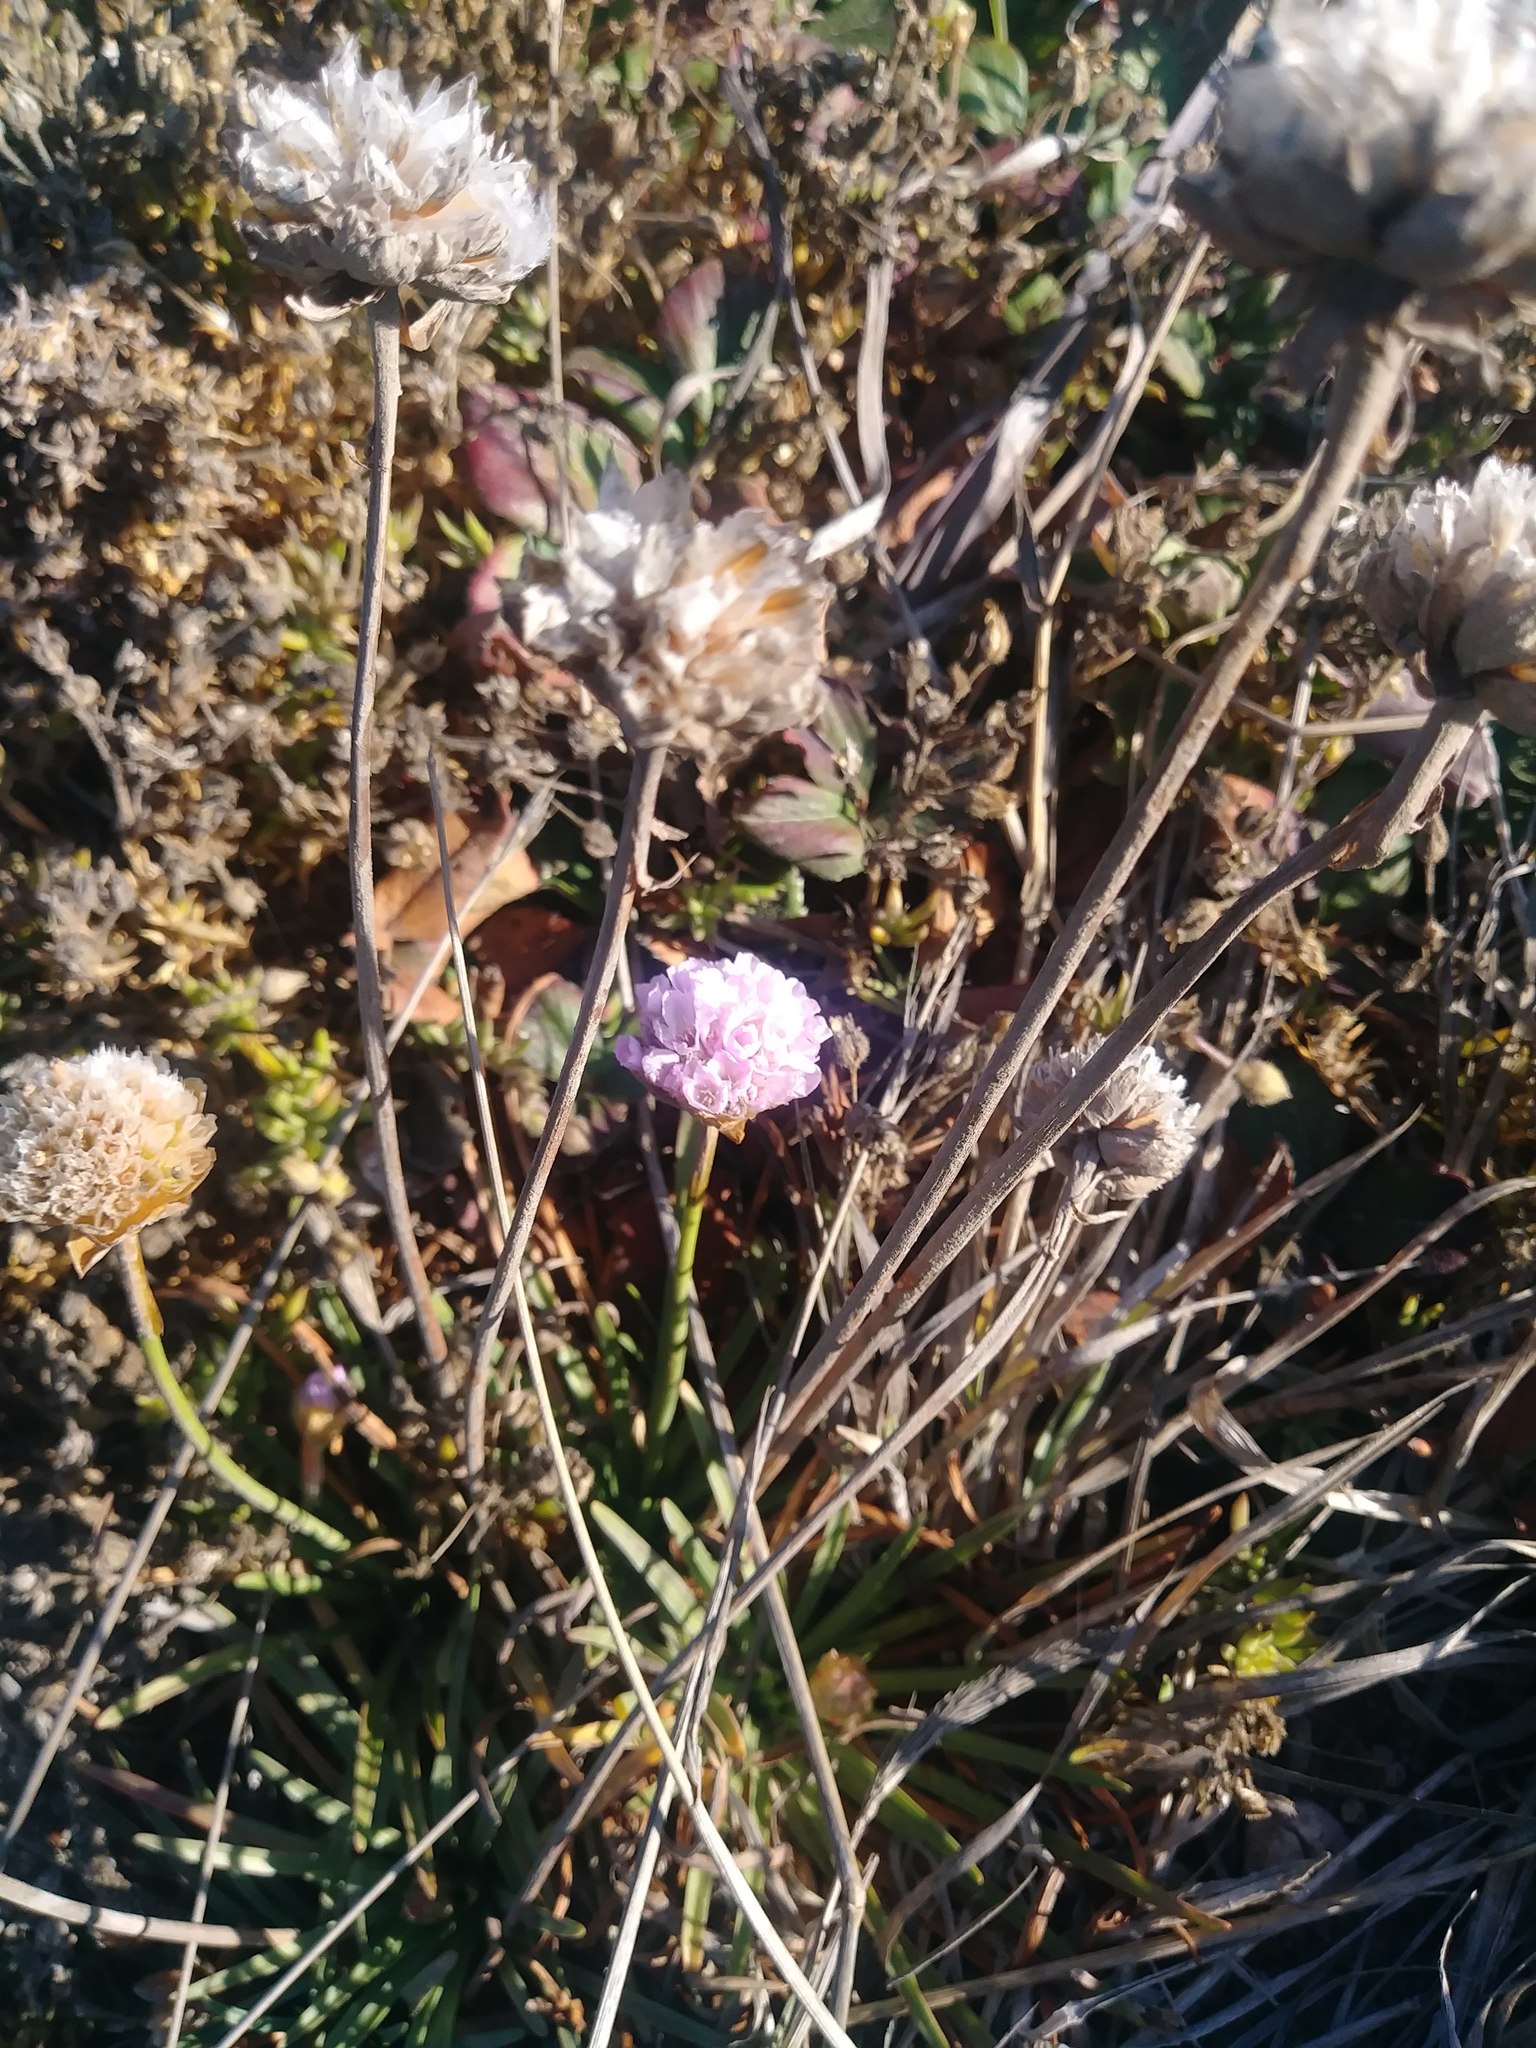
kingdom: Plantae
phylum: Tracheophyta
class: Magnoliopsida
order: Caryophyllales
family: Plumbaginaceae
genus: Armeria
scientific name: Armeria maritima
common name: Thrift
